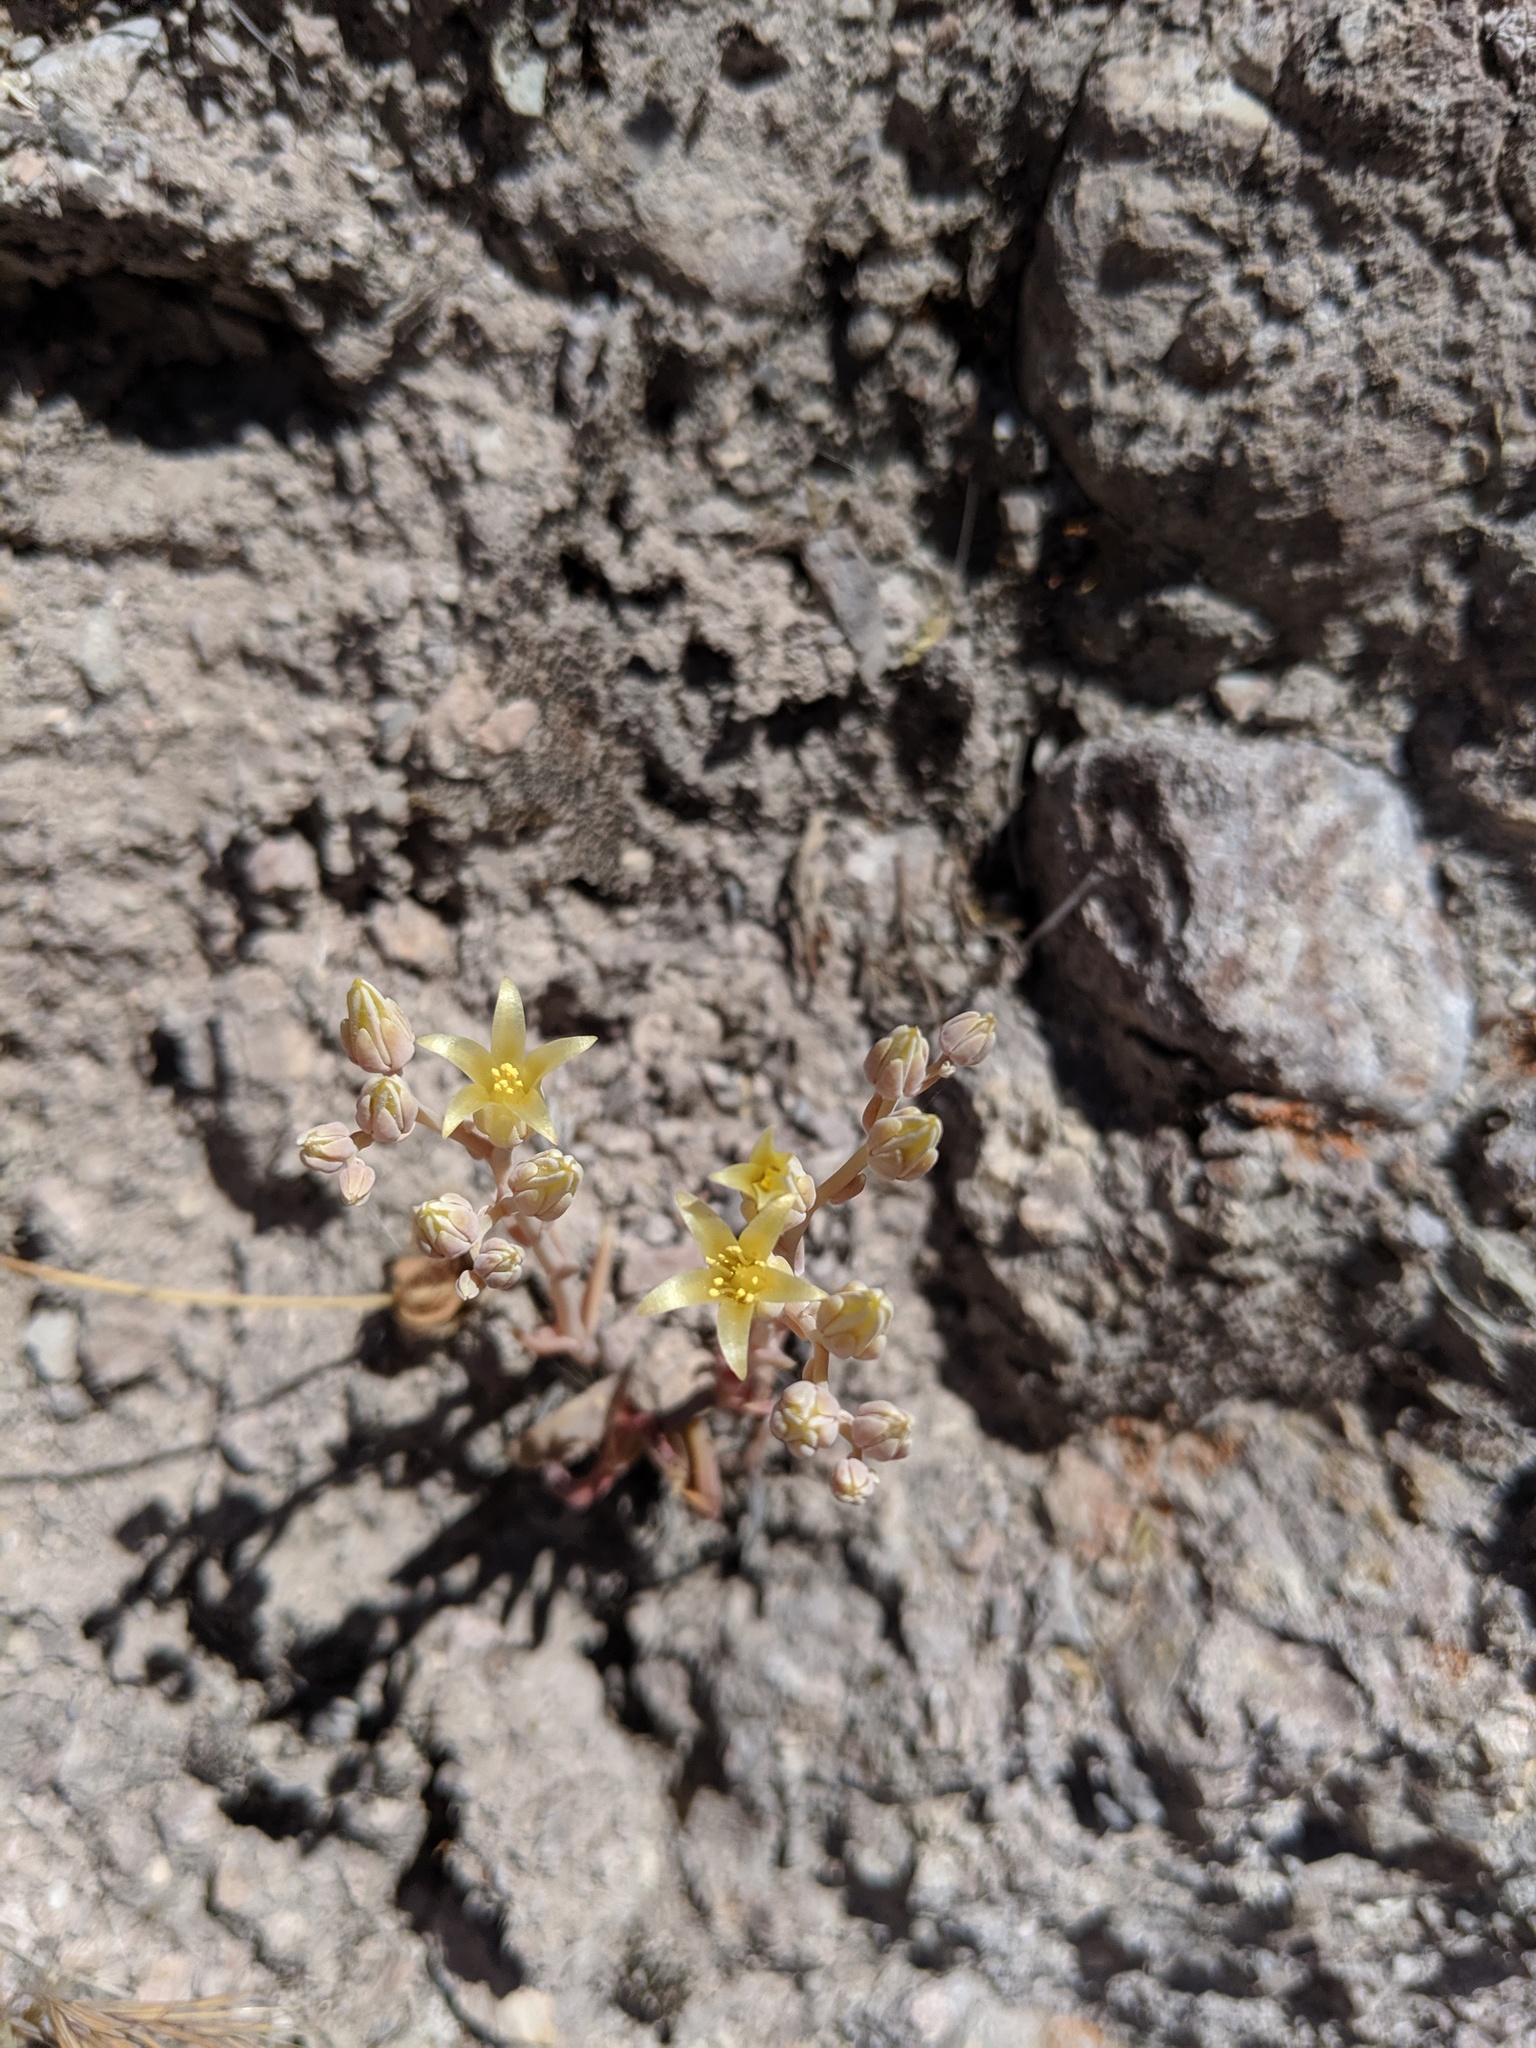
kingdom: Plantae
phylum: Tracheophyta
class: Magnoliopsida
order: Saxifragales
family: Crassulaceae
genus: Dudleya
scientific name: Dudleya cymosa
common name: Canyon dudleya
